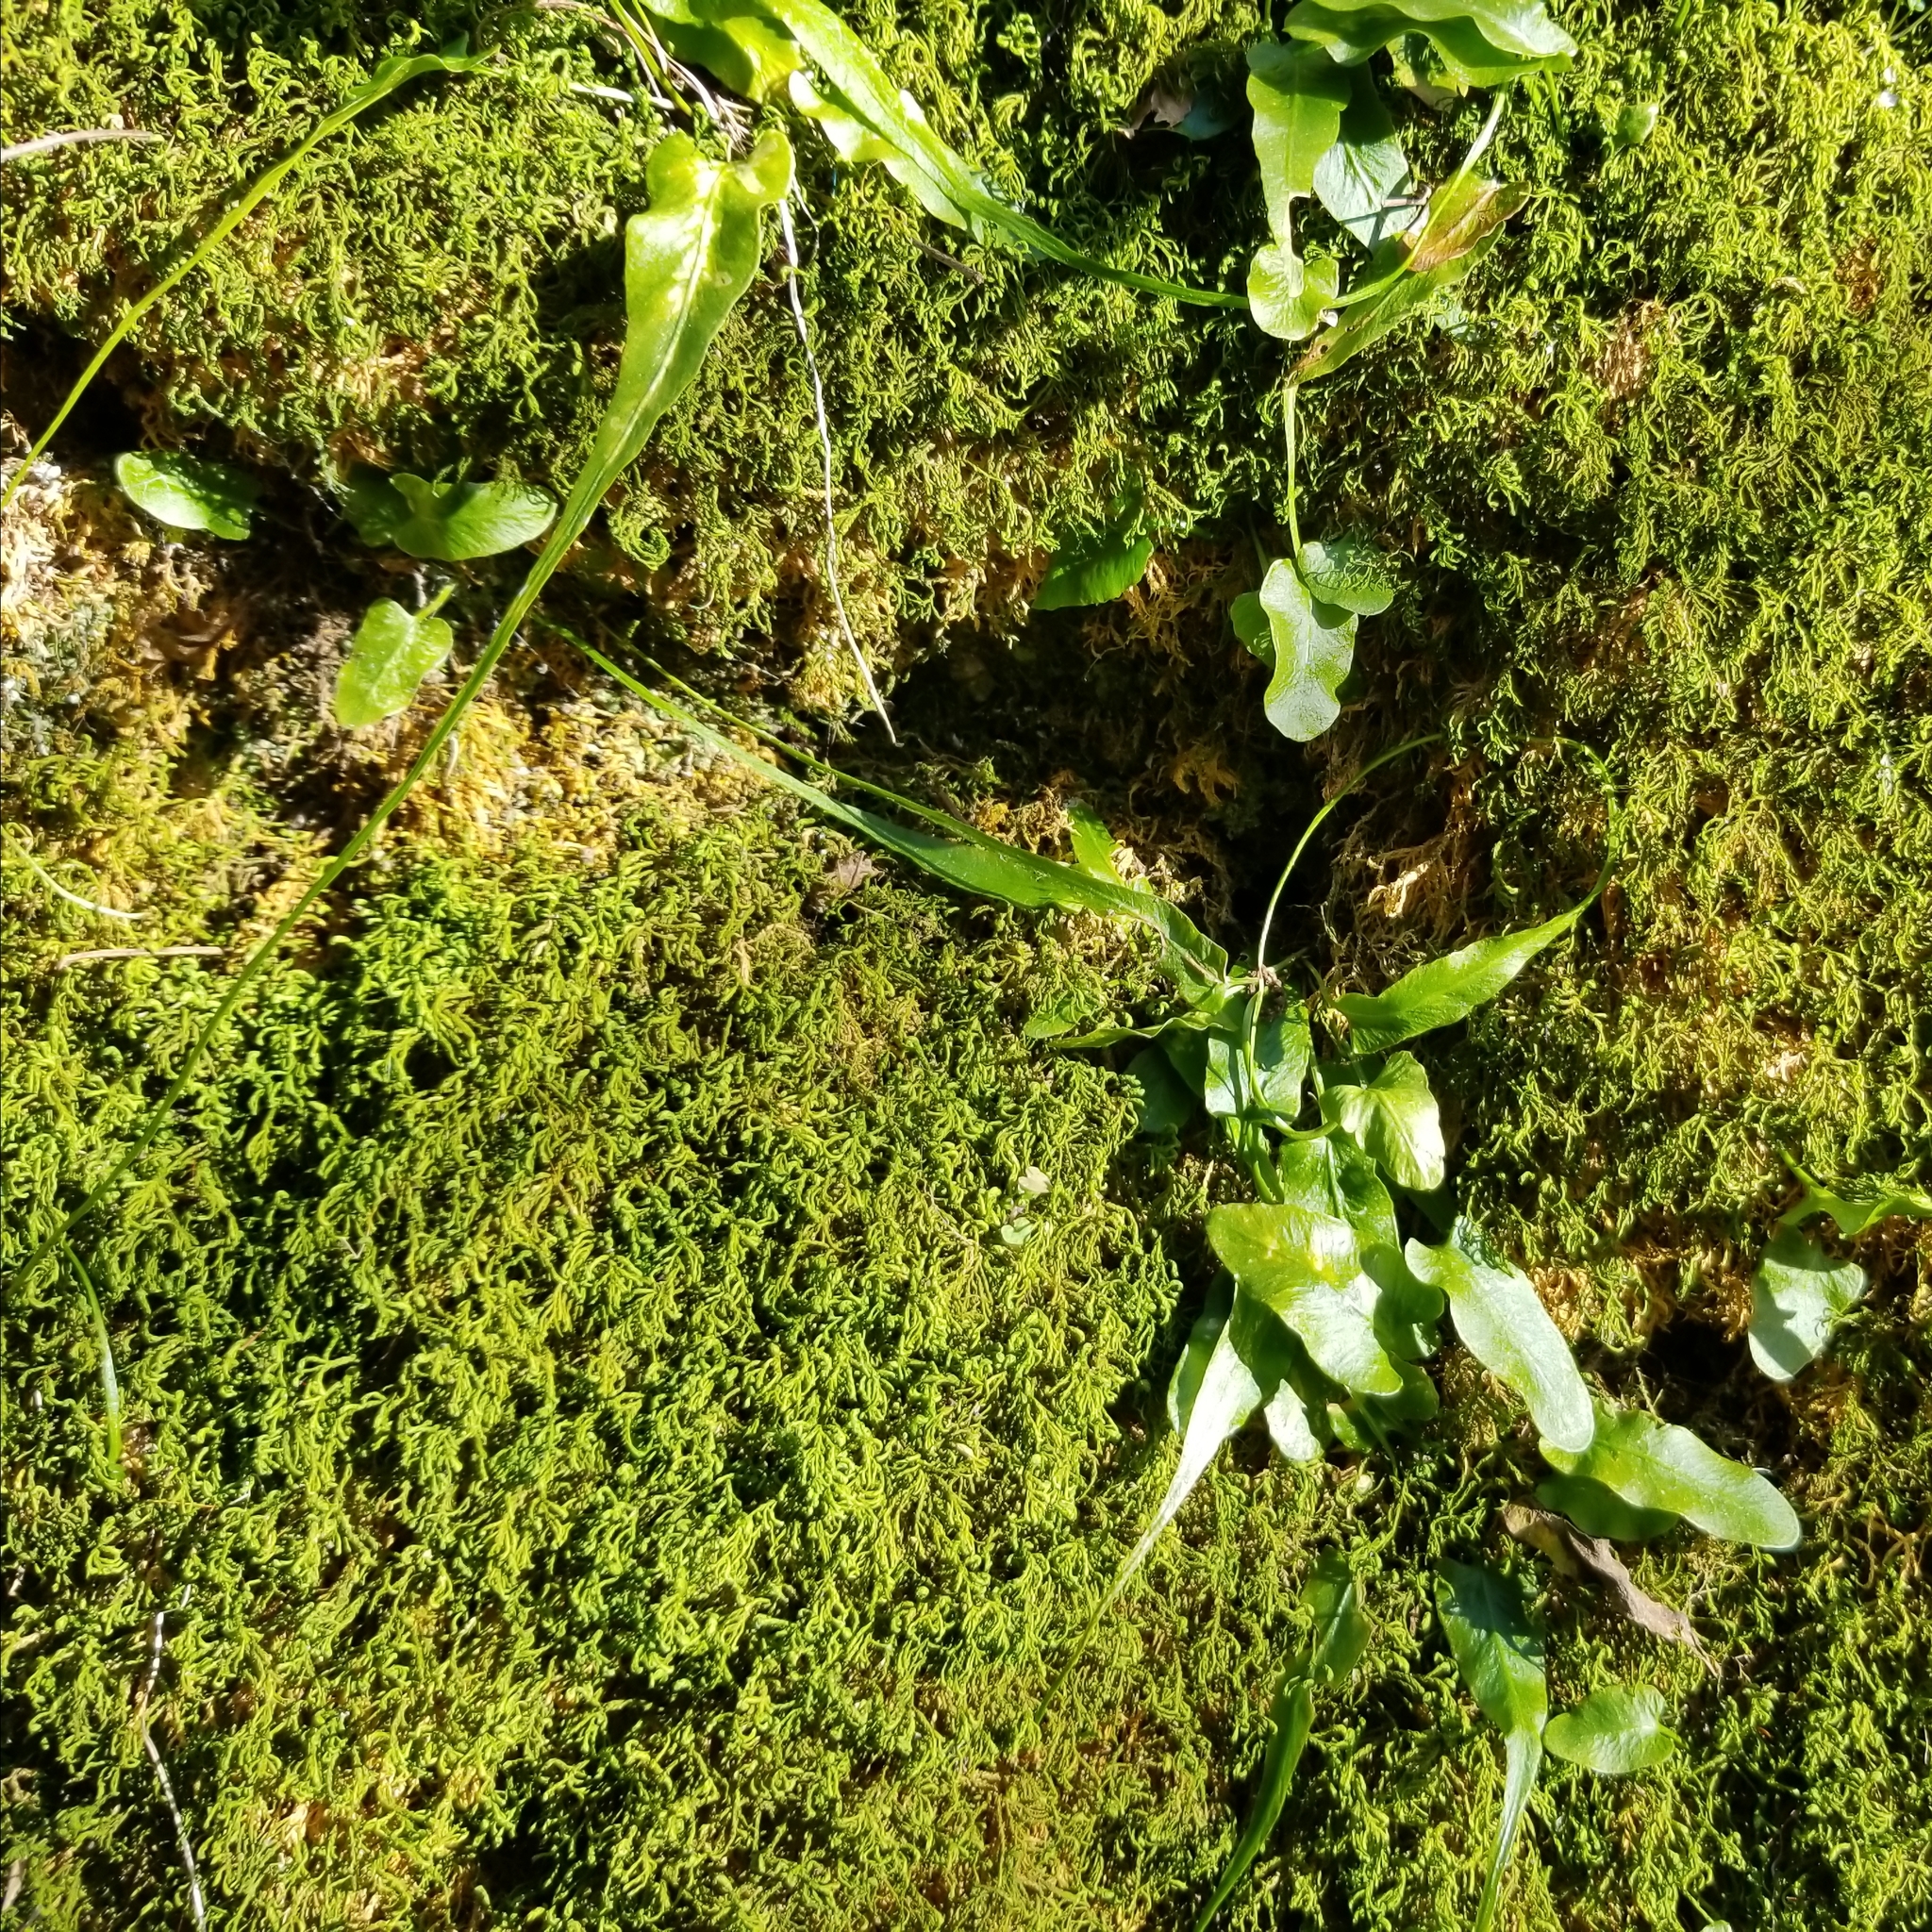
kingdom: Plantae
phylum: Tracheophyta
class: Polypodiopsida
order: Polypodiales
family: Aspleniaceae
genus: Asplenium
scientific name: Asplenium rhizophyllum
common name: Walking fern
